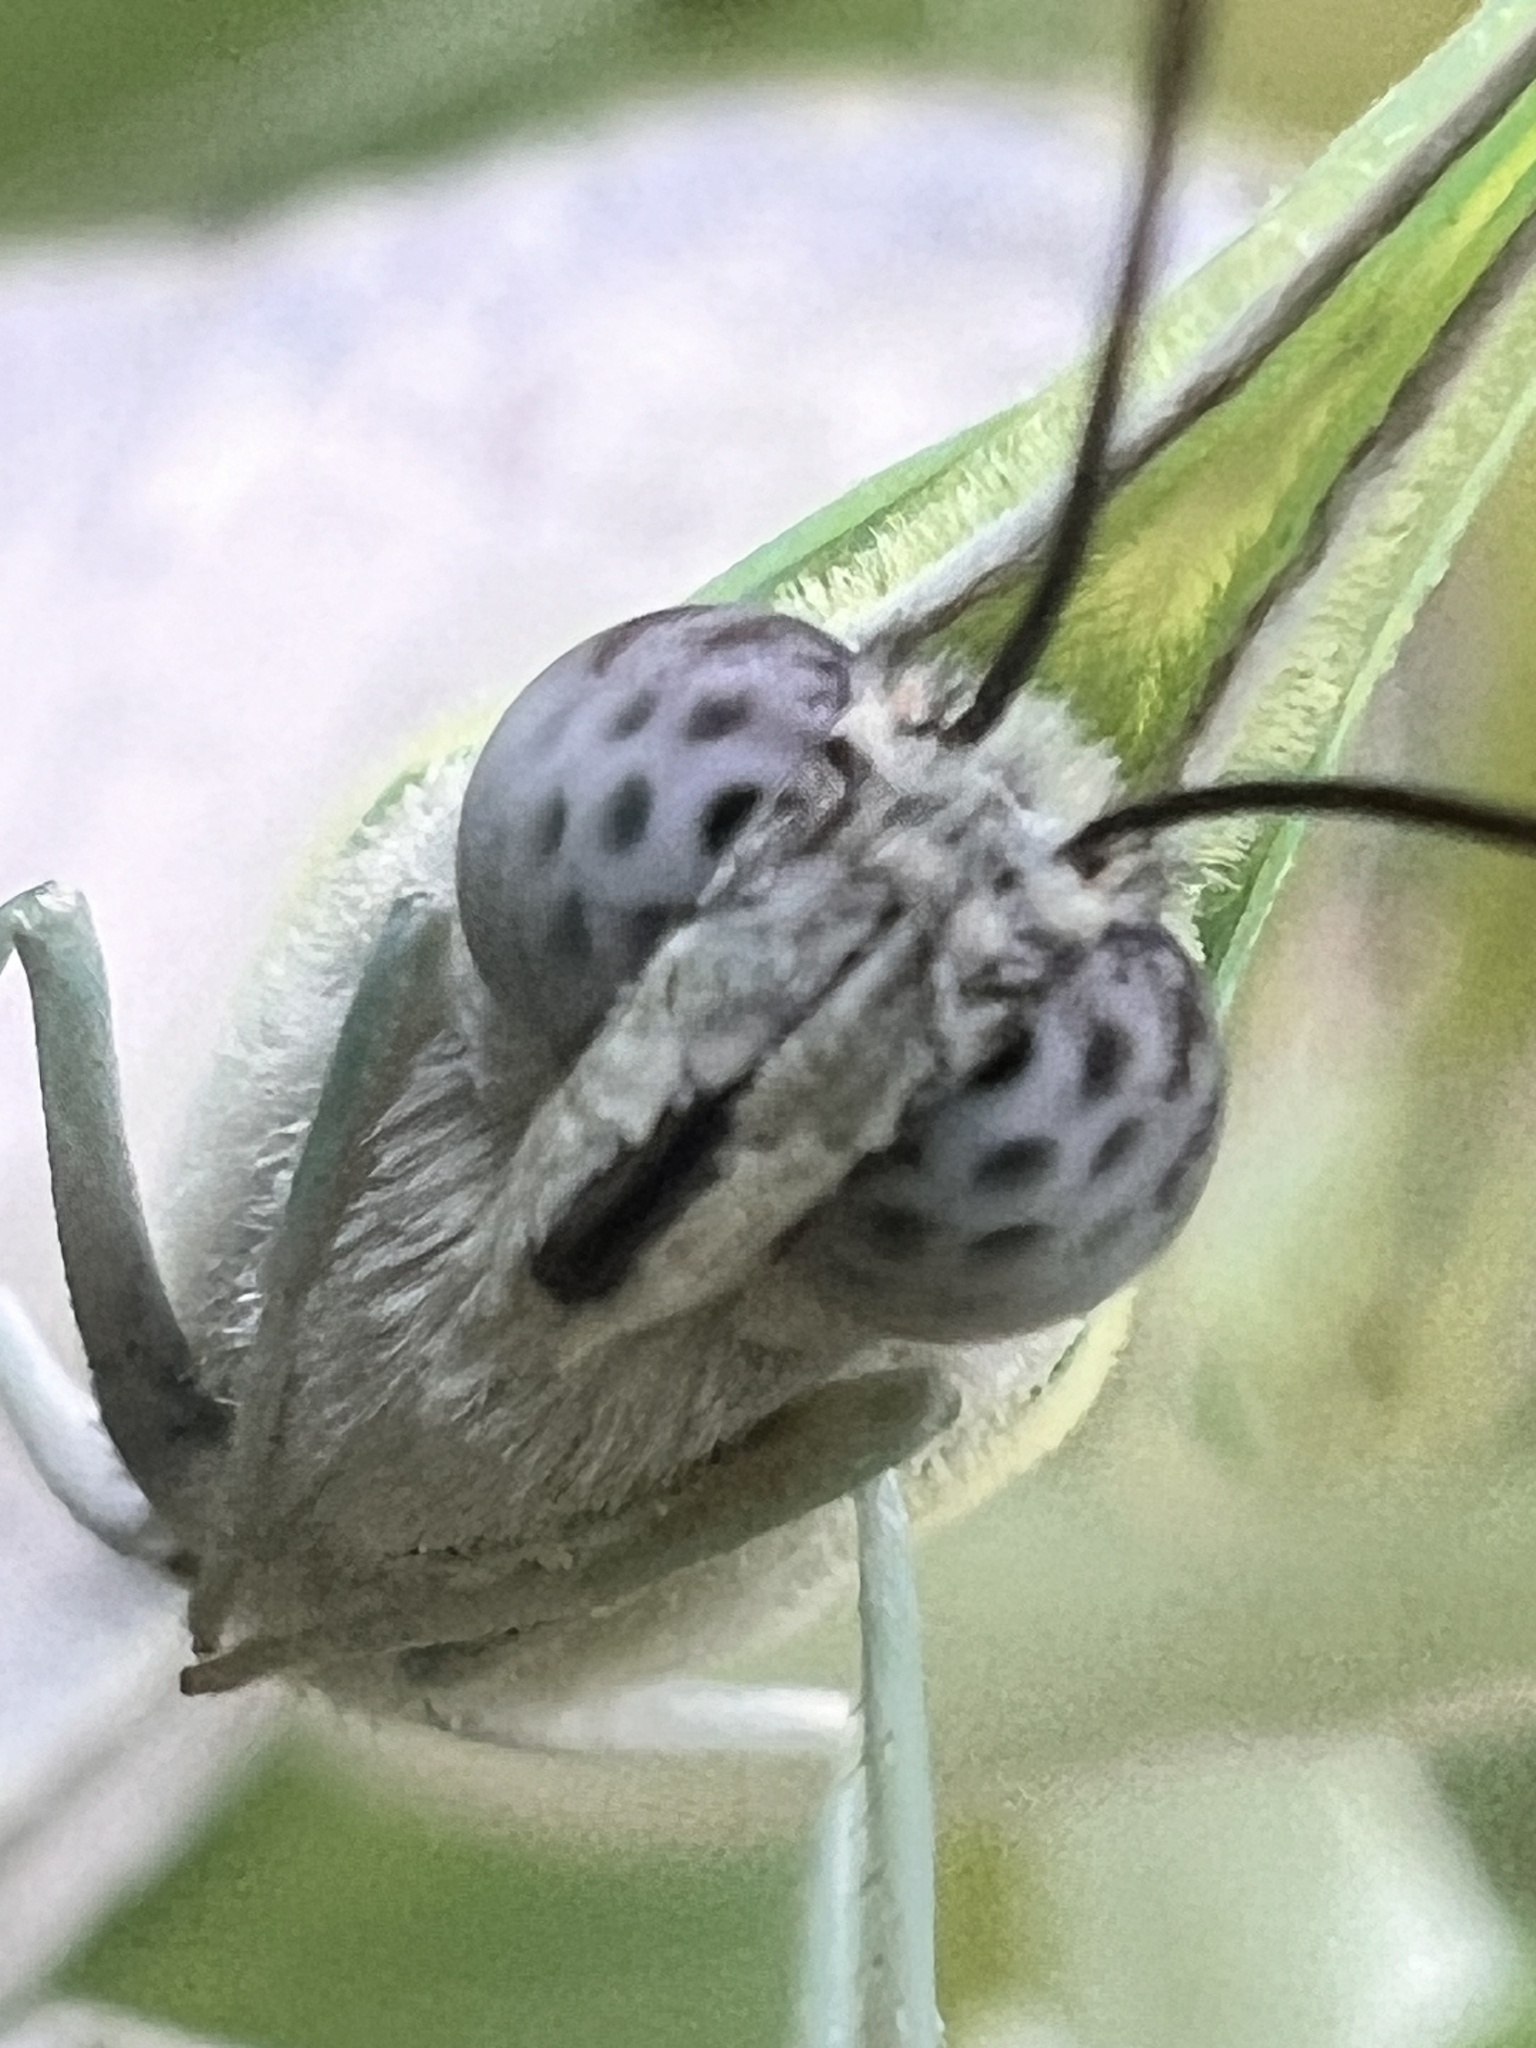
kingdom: Animalia
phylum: Arthropoda
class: Insecta
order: Lepidoptera
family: Pieridae
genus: Catopsilia
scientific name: Catopsilia pomona
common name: Common emigrant
